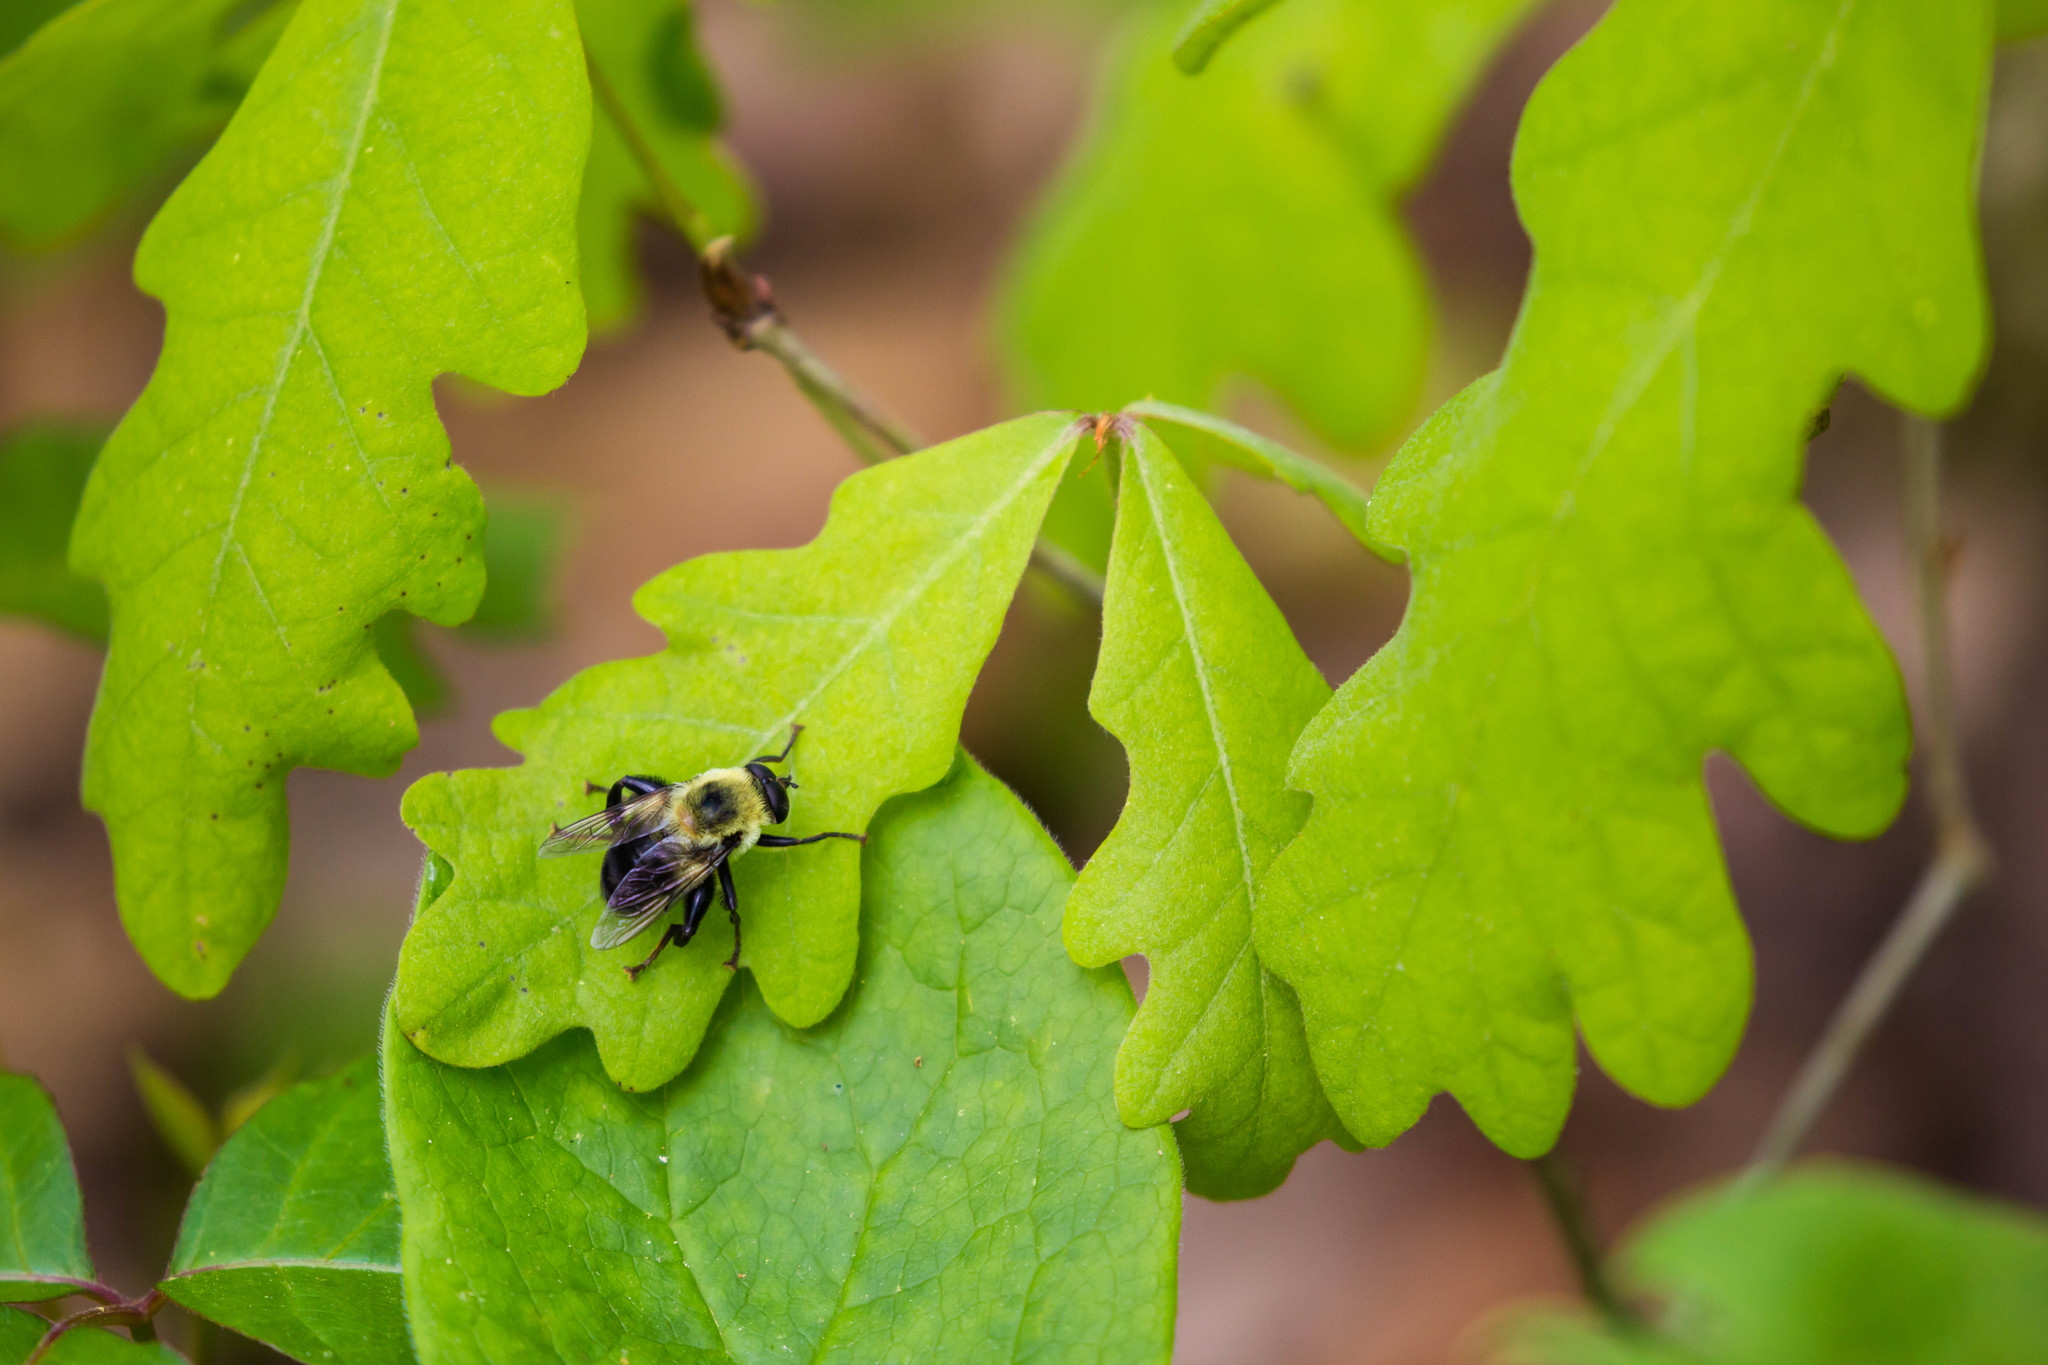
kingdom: Animalia
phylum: Arthropoda
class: Insecta
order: Diptera
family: Syrphidae
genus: Imatisma
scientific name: Imatisma posticata
